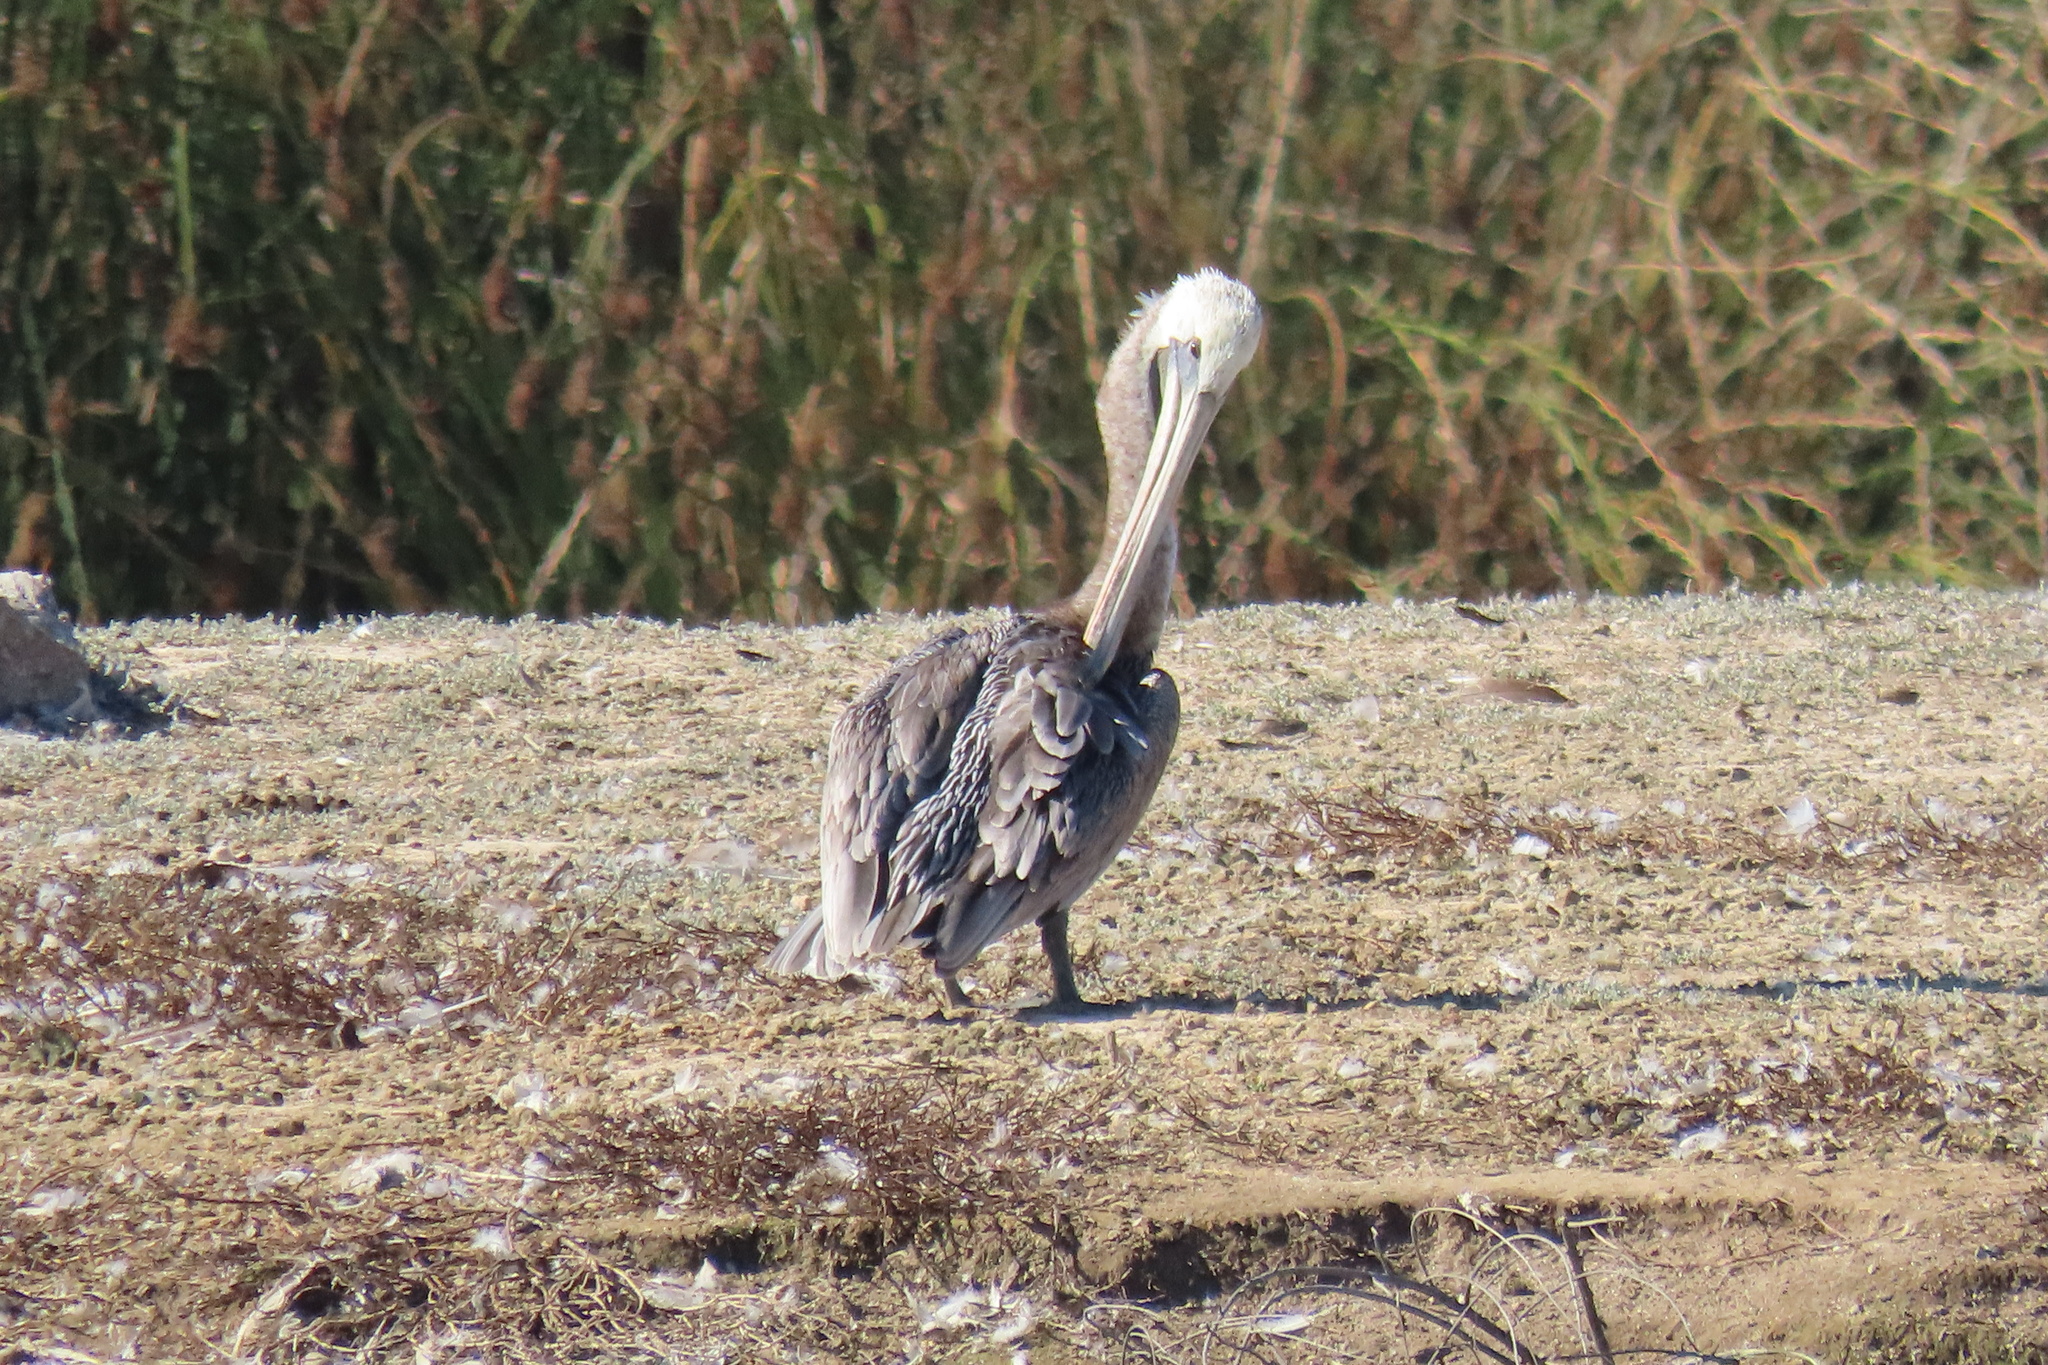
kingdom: Animalia
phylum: Chordata
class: Aves
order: Pelecaniformes
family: Pelecanidae
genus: Pelecanus
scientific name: Pelecanus occidentalis
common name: Brown pelican
